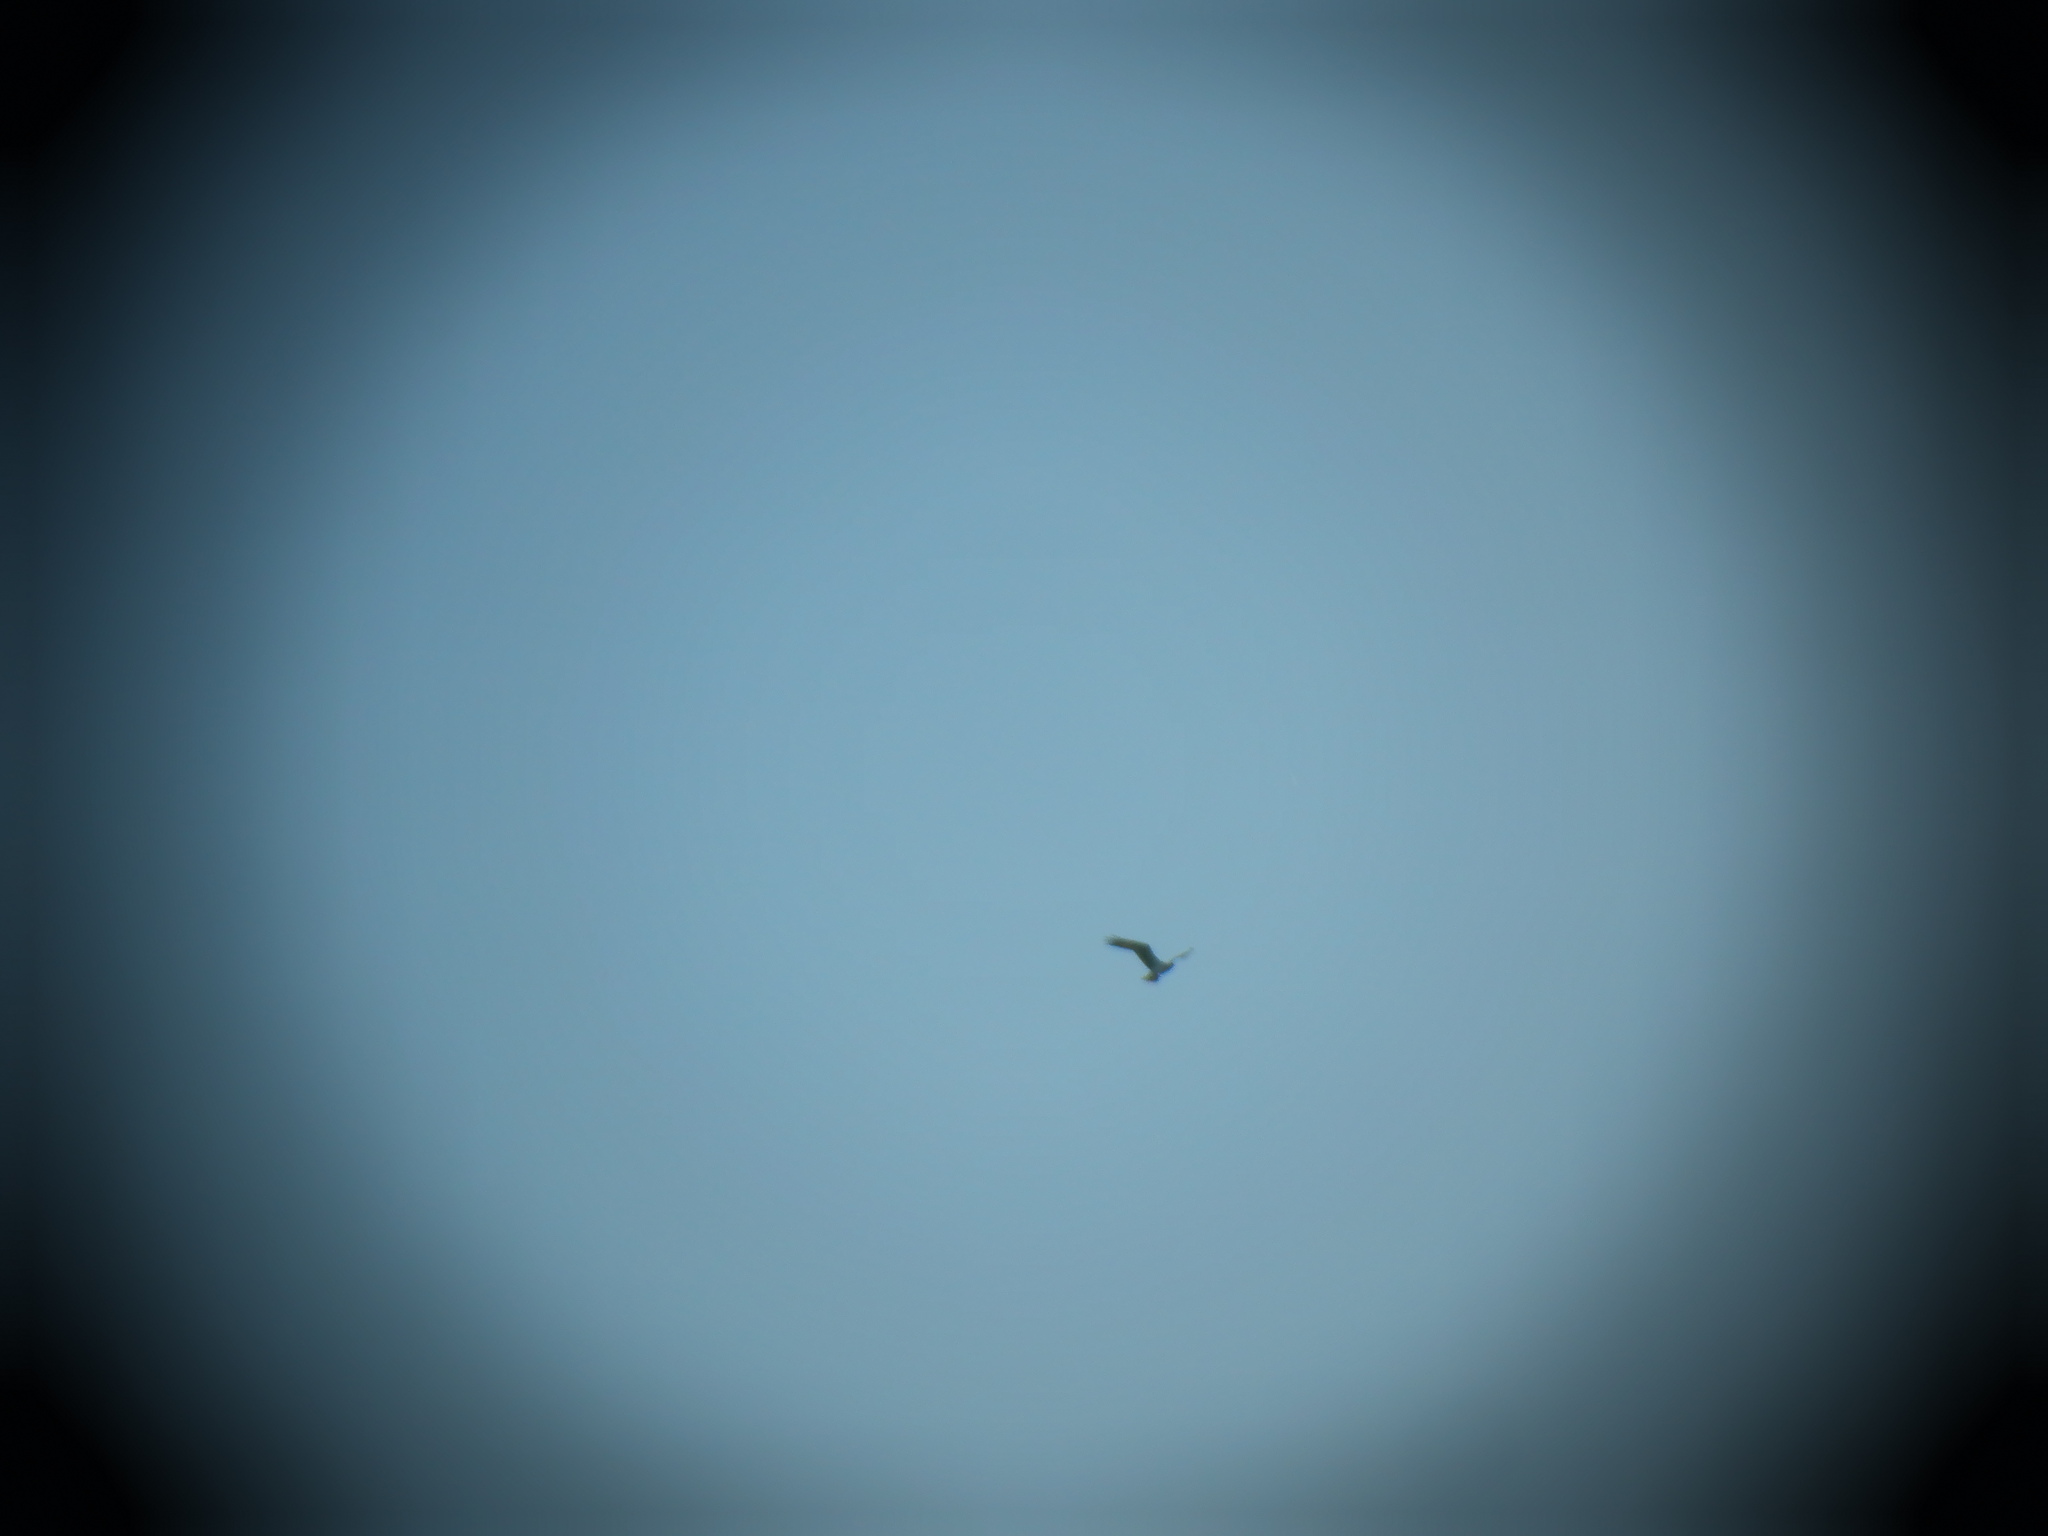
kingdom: Animalia
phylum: Chordata
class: Aves
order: Accipitriformes
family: Pandionidae
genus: Pandion
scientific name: Pandion haliaetus
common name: Osprey
